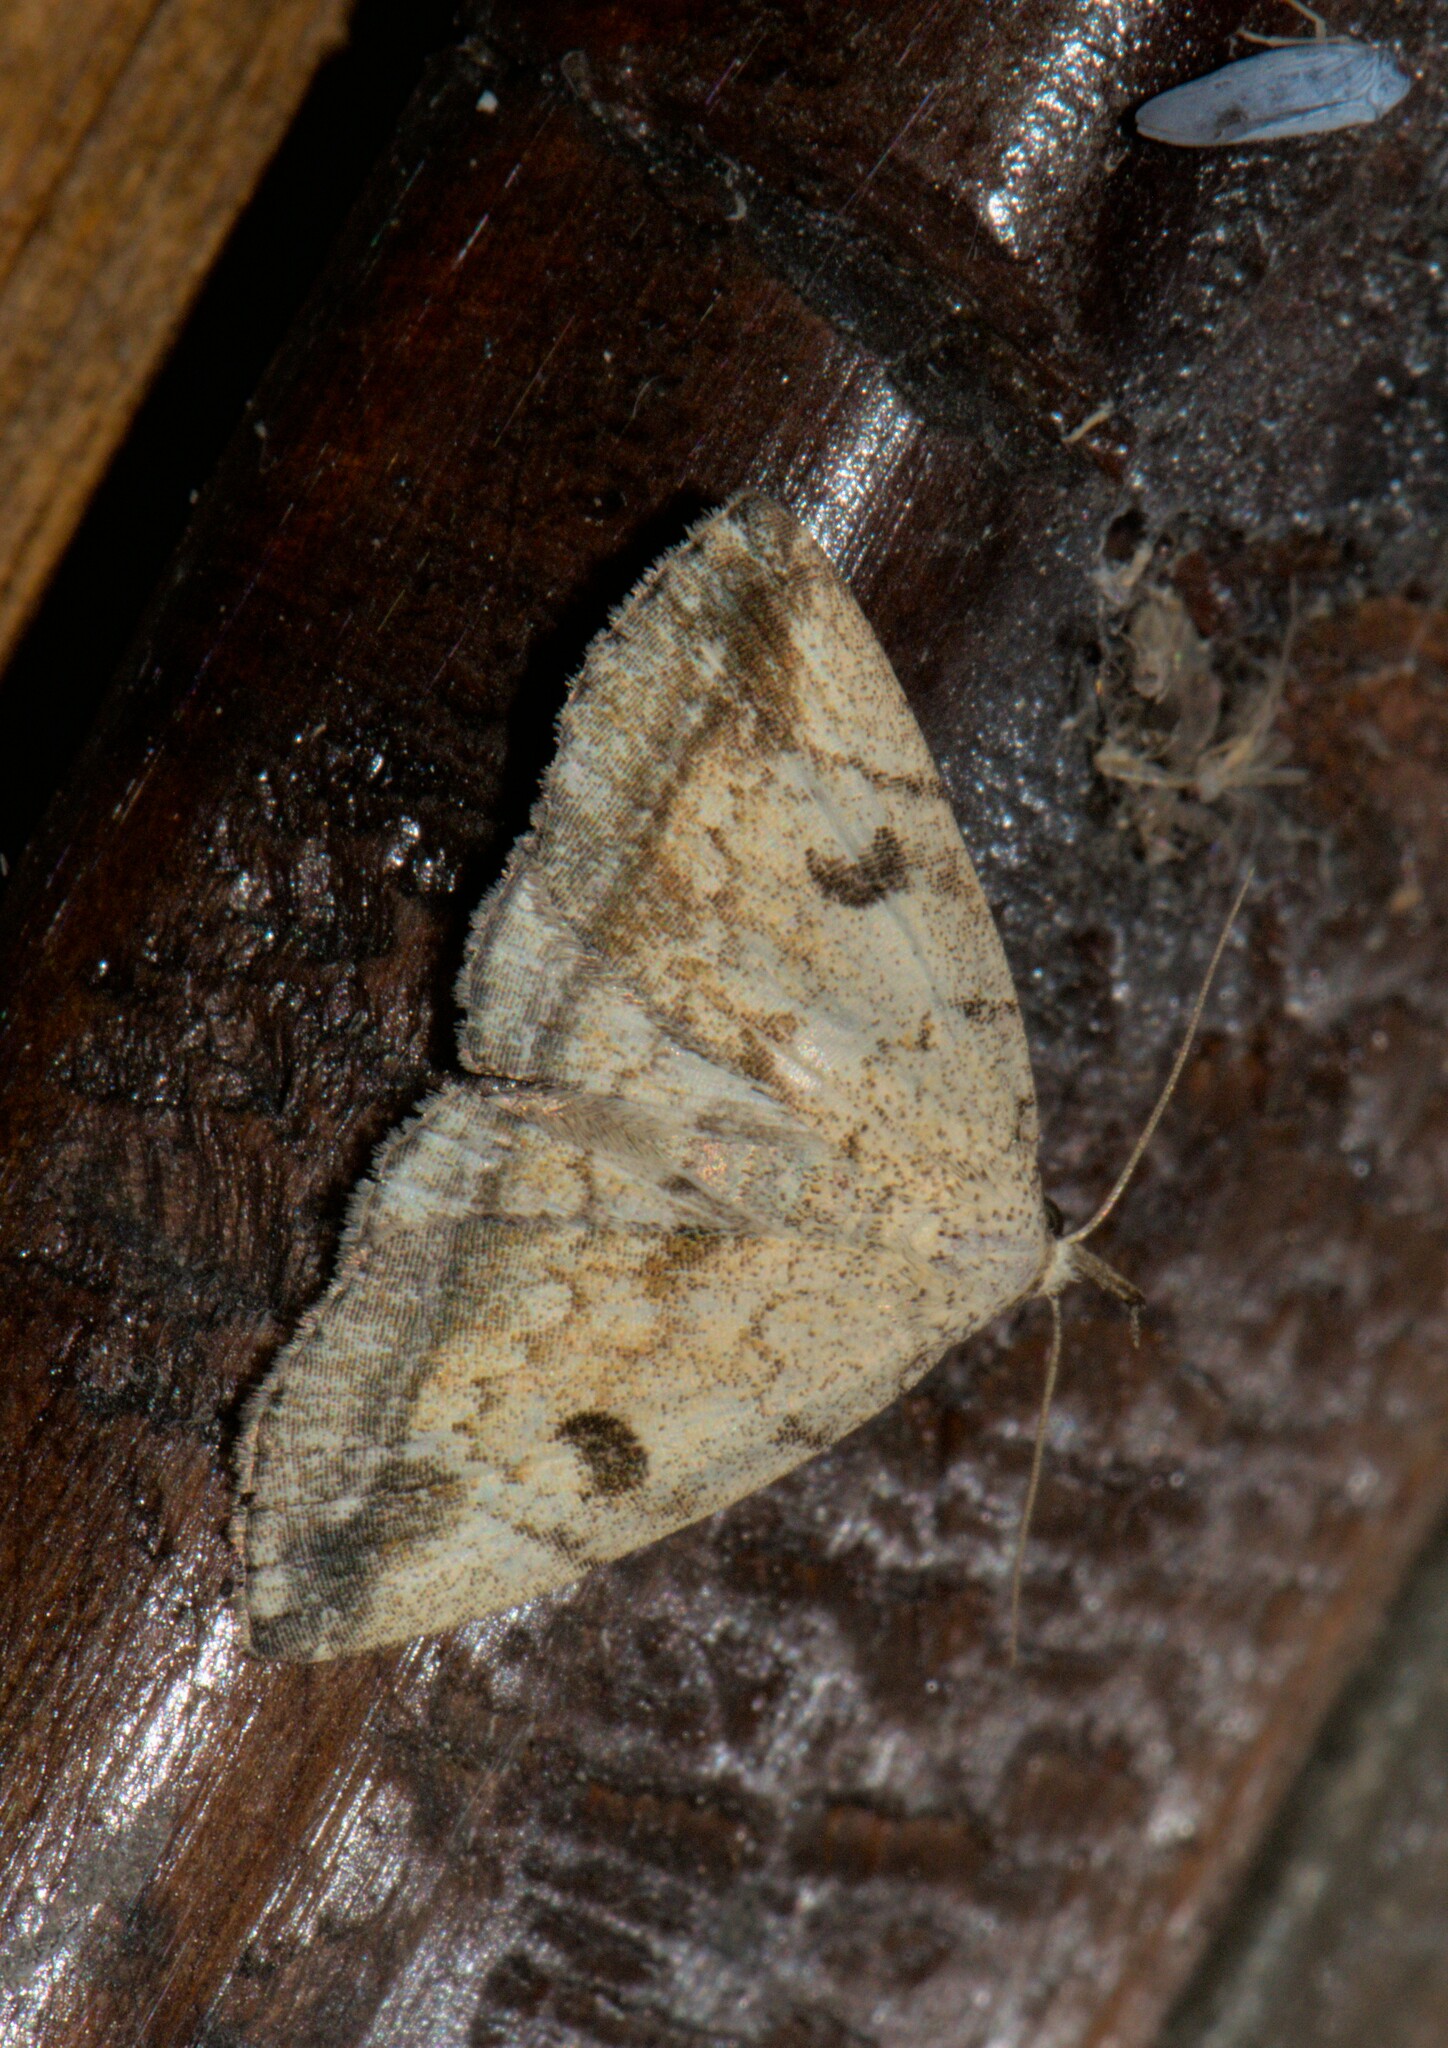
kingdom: Animalia
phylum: Arthropoda
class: Insecta
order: Lepidoptera
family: Erebidae
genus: Herminia
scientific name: Herminia
